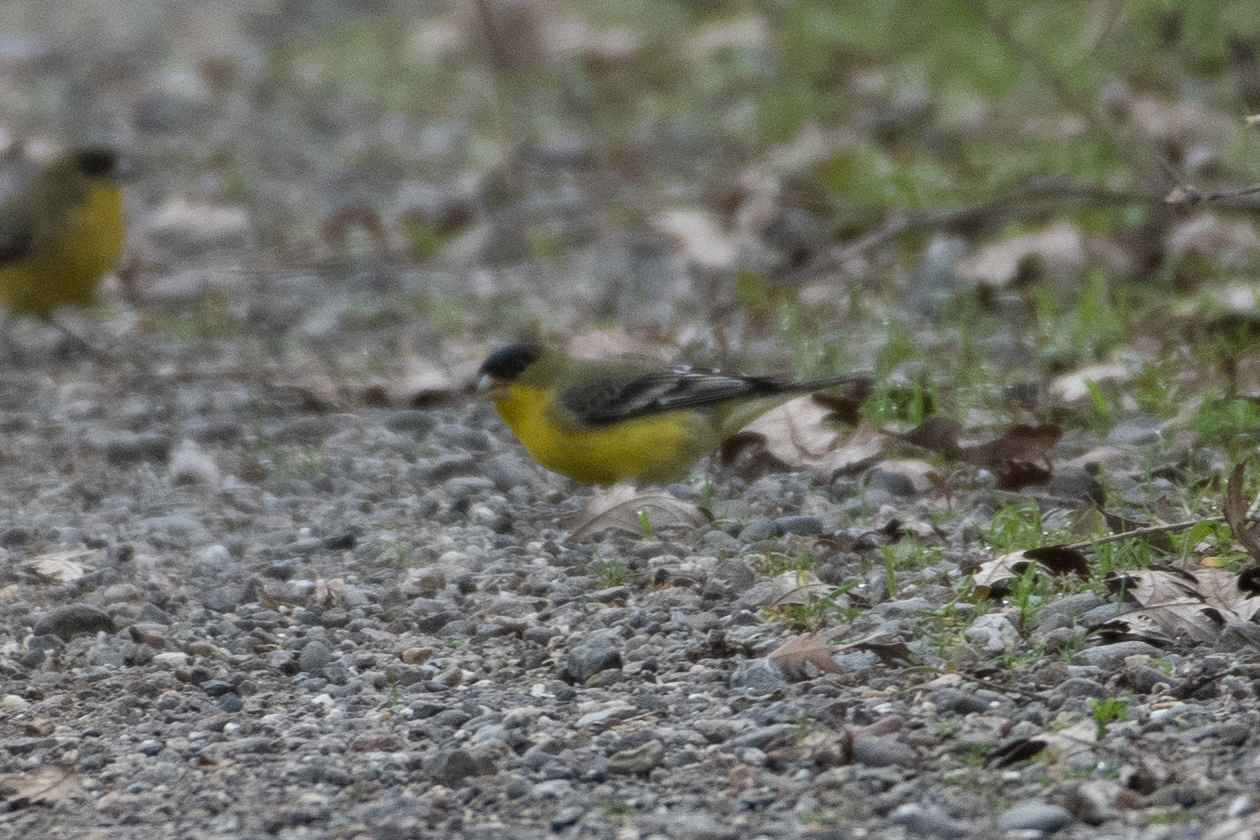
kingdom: Animalia
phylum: Chordata
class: Aves
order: Passeriformes
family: Fringillidae
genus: Spinus
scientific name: Spinus psaltria
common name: Lesser goldfinch
